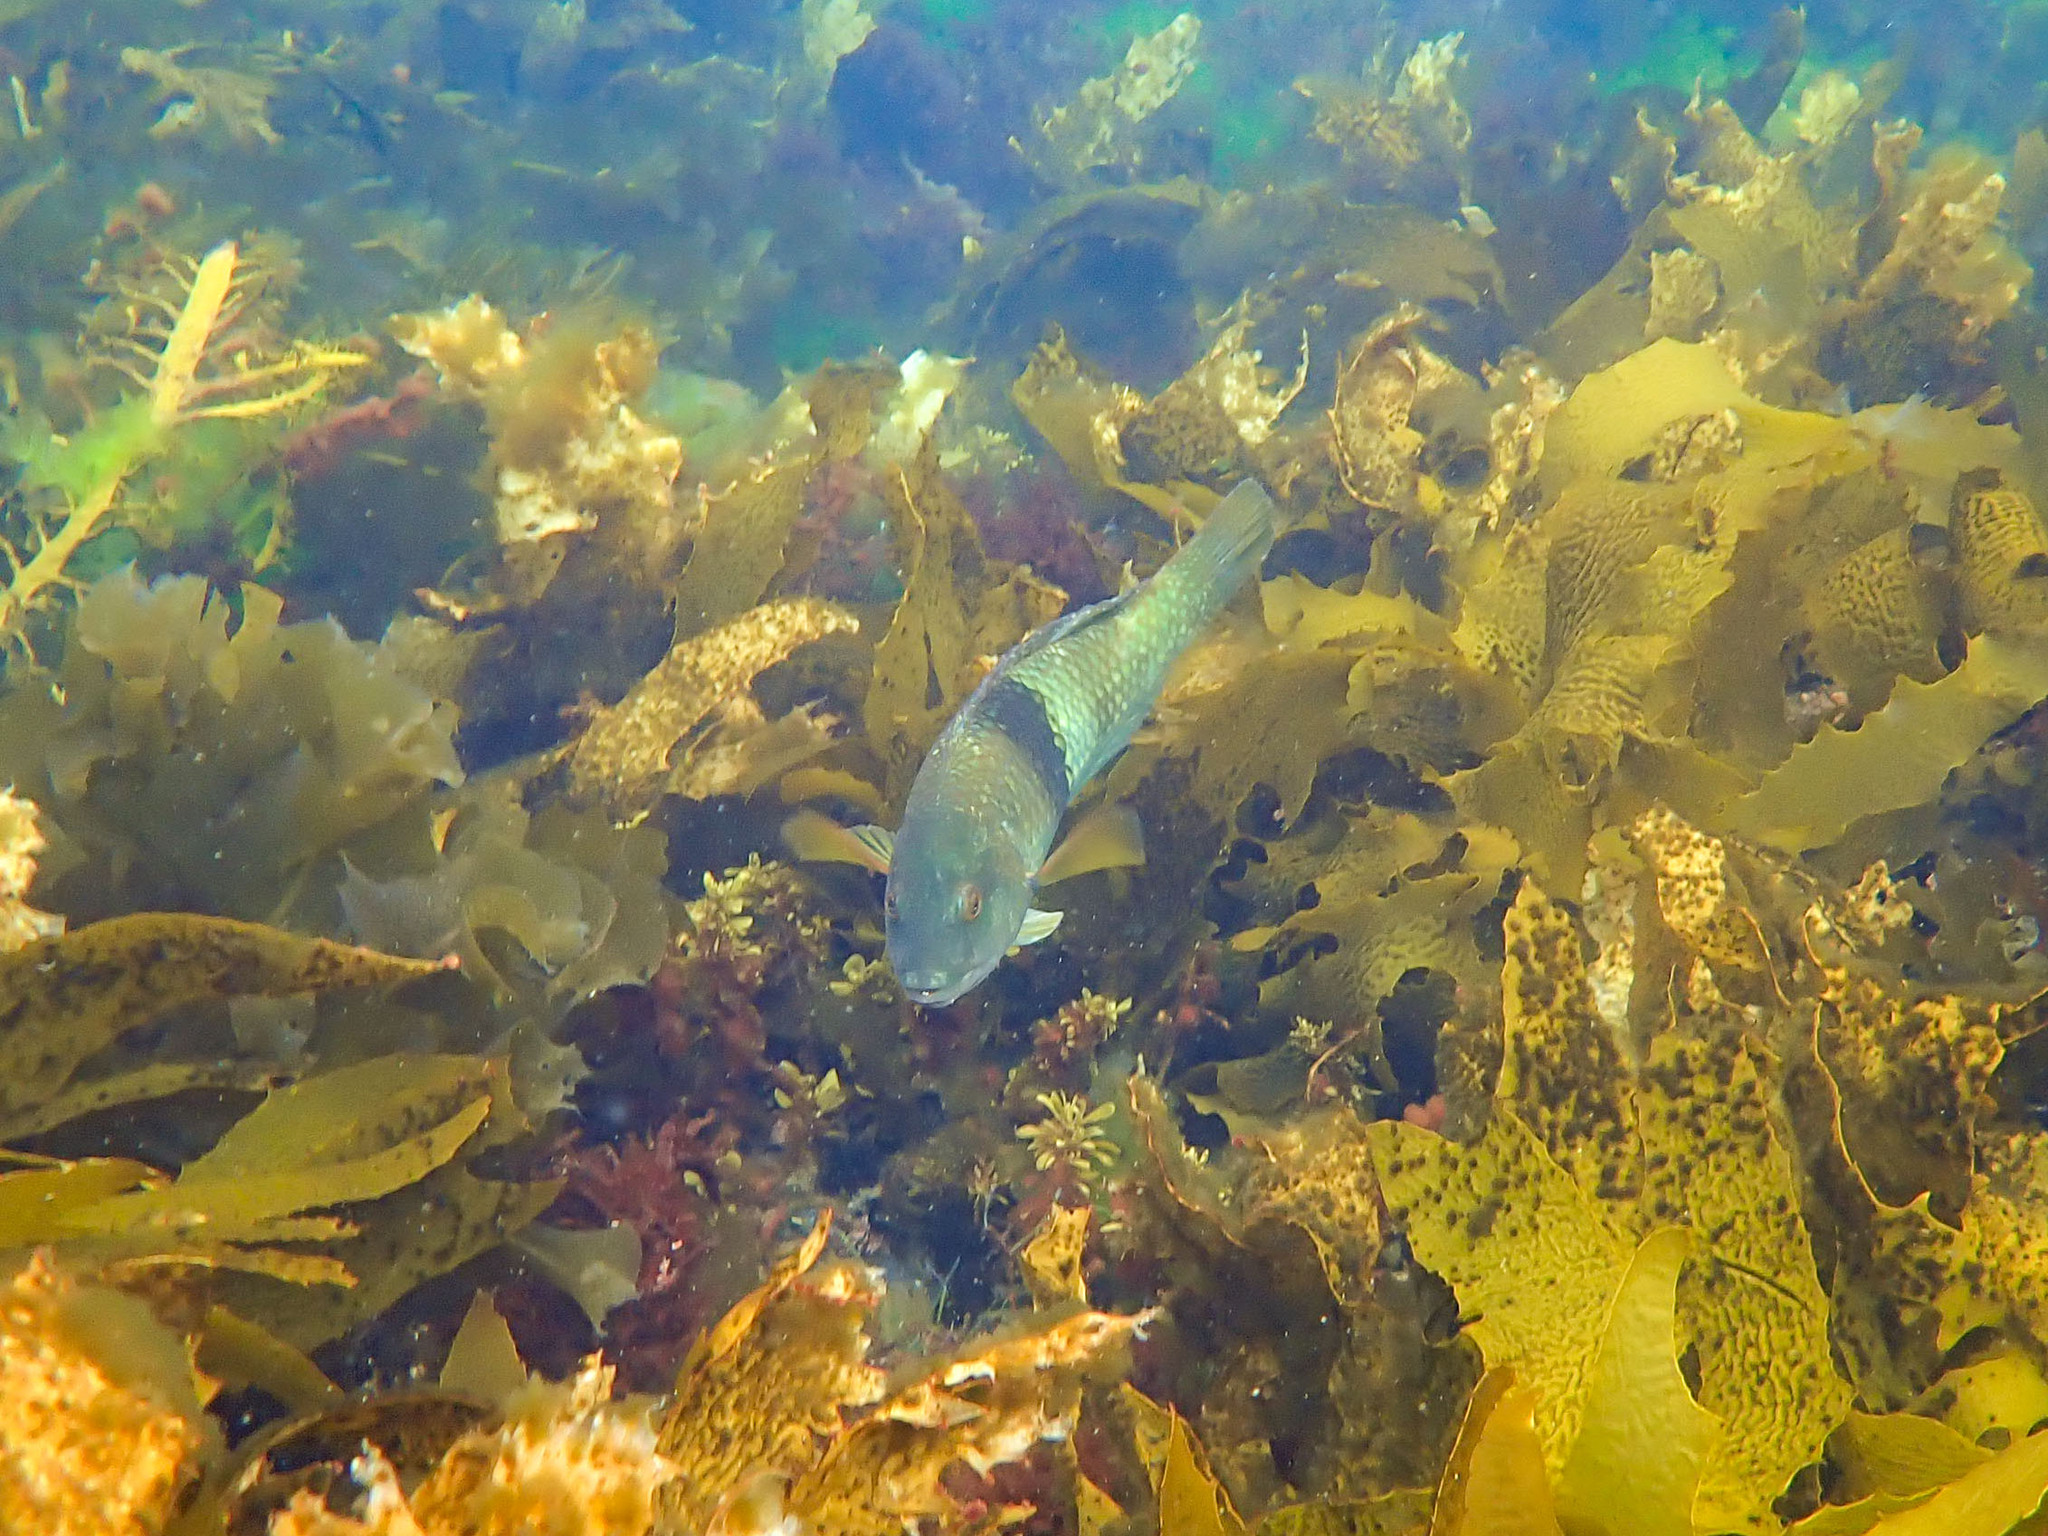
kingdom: Animalia
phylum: Chordata
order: Perciformes
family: Labridae
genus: Notolabrus
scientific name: Notolabrus tetricus
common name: Blue-throated parrotfish
